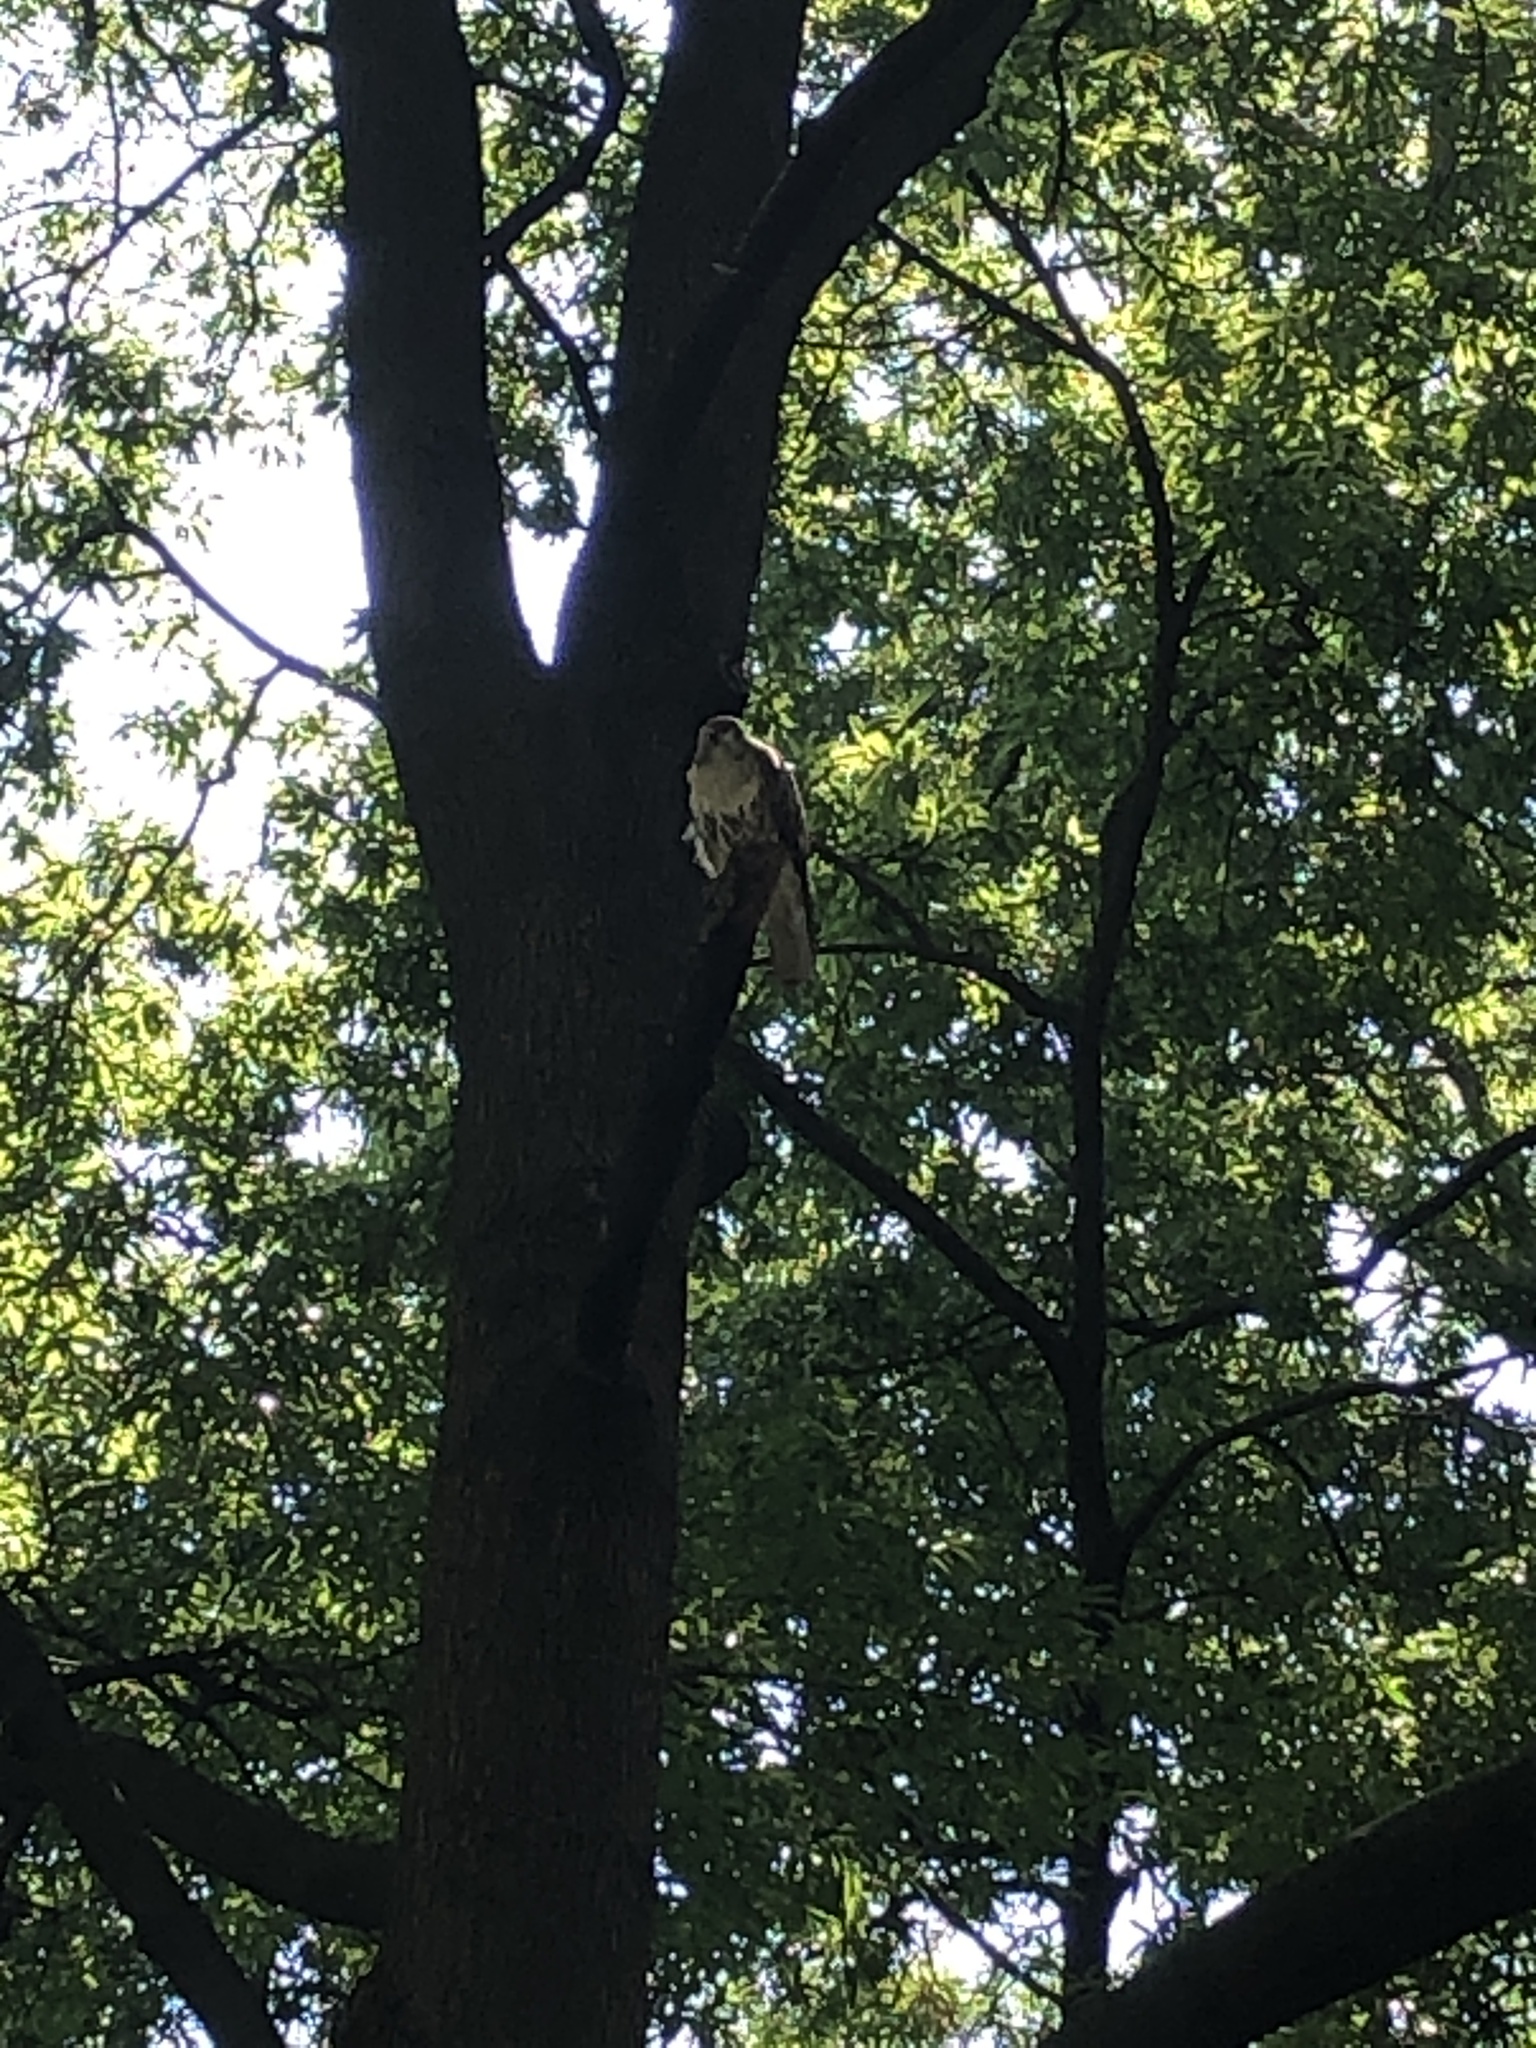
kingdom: Animalia
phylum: Chordata
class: Aves
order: Accipitriformes
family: Accipitridae
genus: Buteo
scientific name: Buteo jamaicensis
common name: Red-tailed hawk
